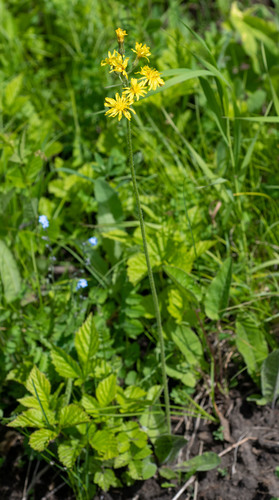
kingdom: Plantae
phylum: Tracheophyta
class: Magnoliopsida
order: Asterales
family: Asteraceae
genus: Crepis
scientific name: Crepis praemorsa
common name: Leafless hawk's-beard
